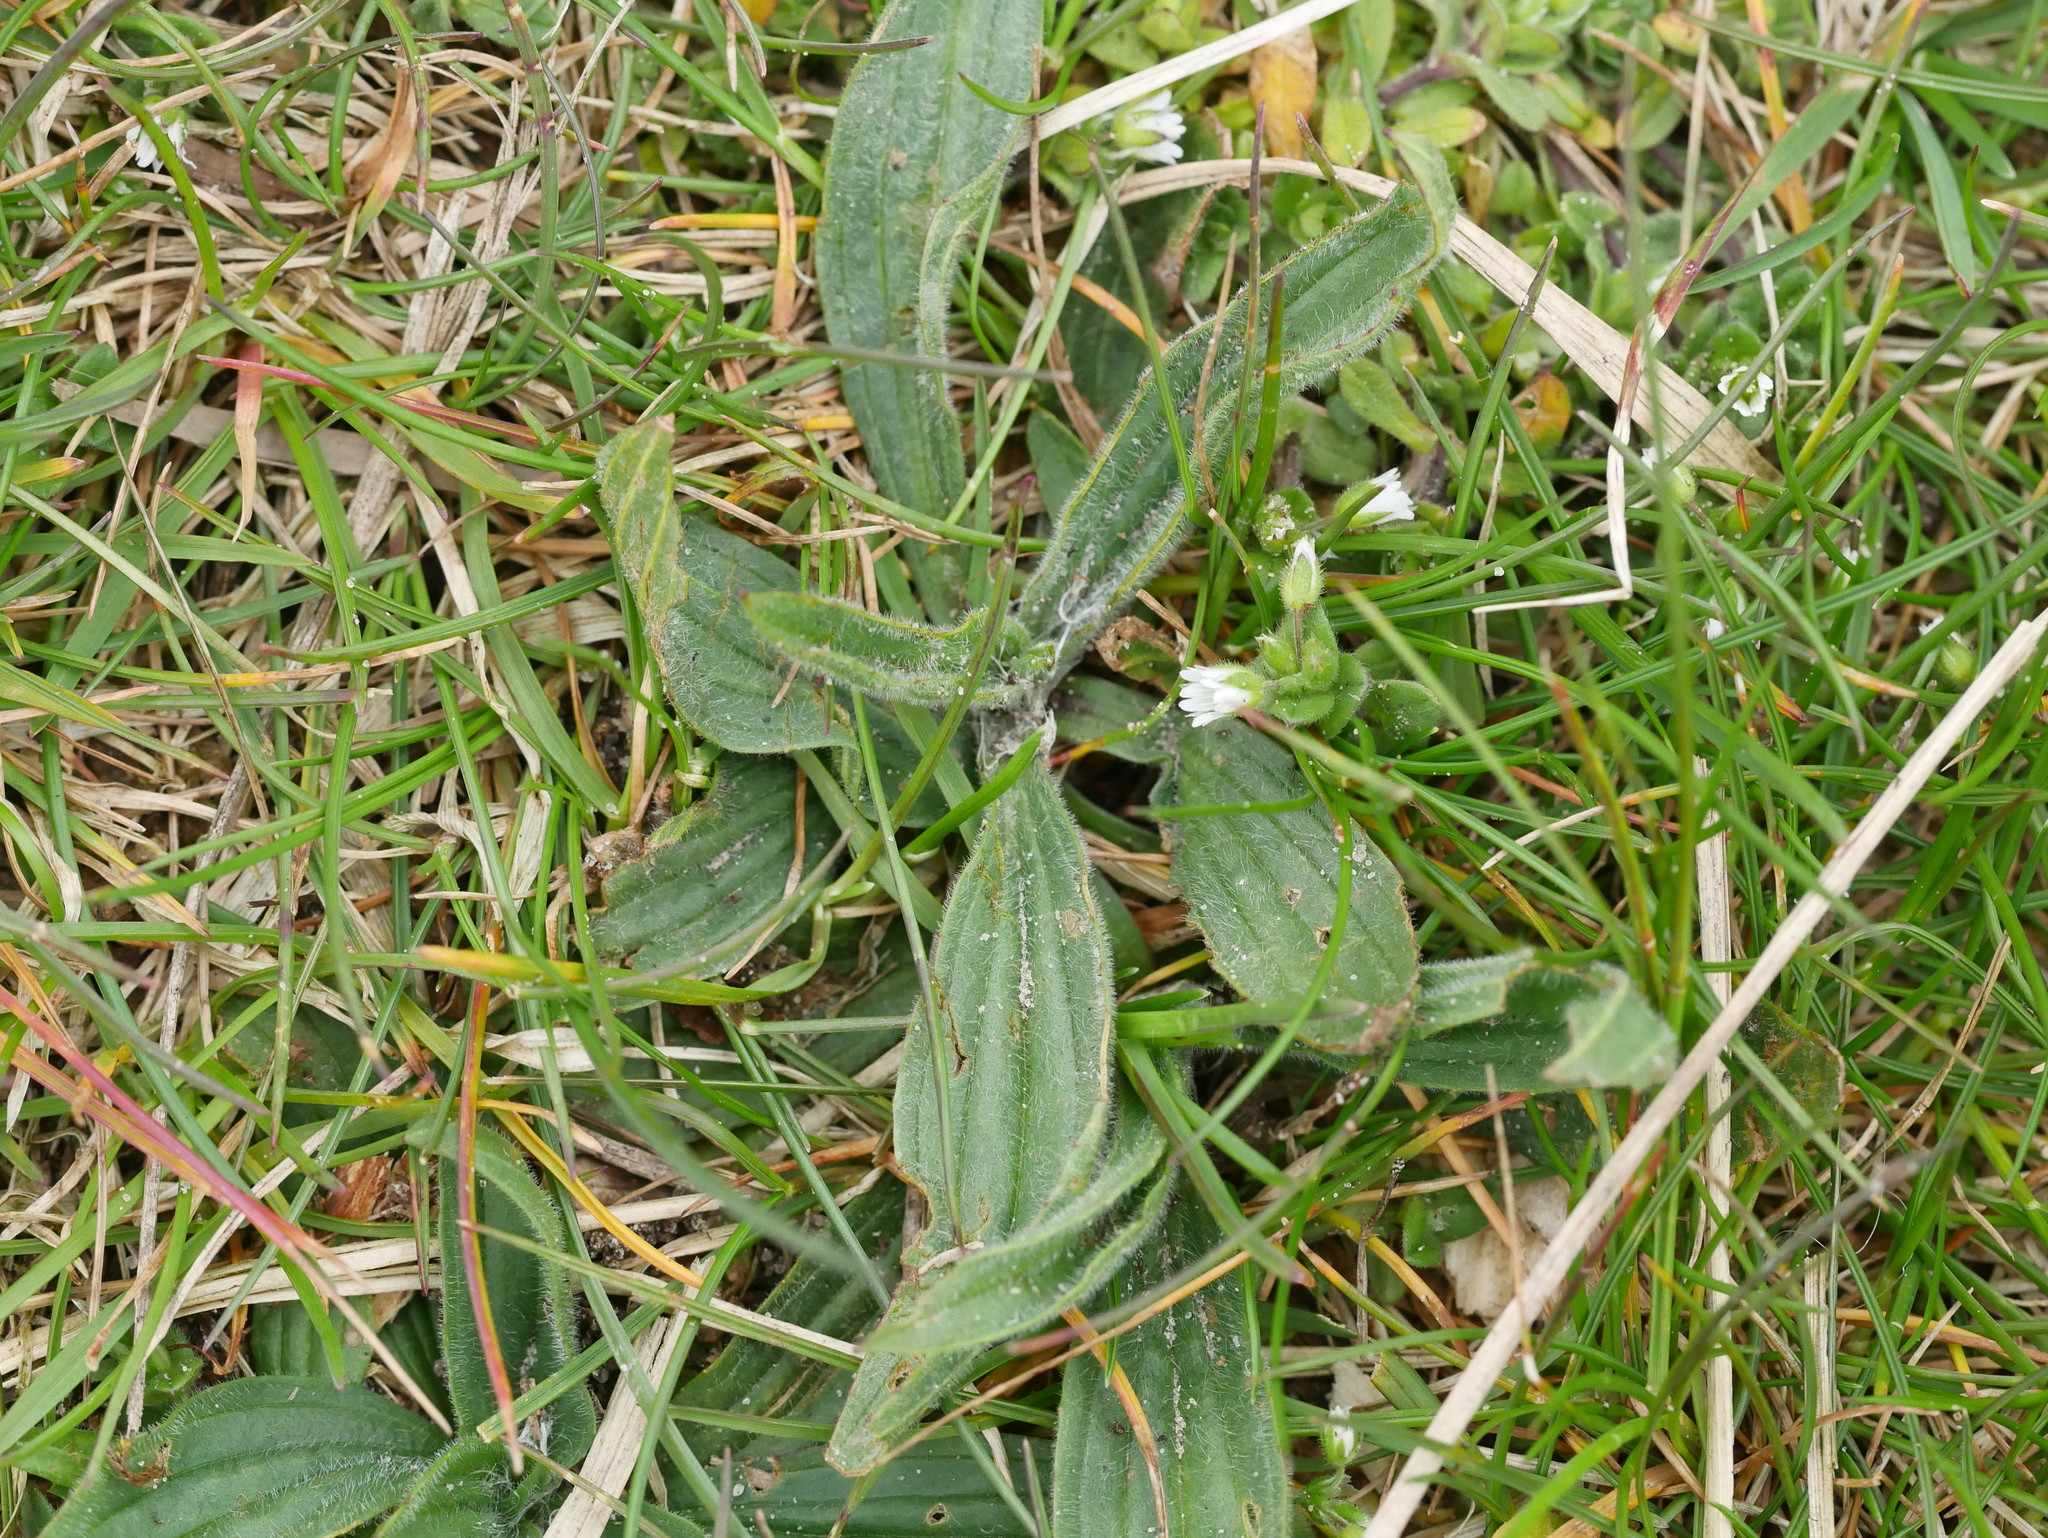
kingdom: Plantae
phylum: Tracheophyta
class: Magnoliopsida
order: Lamiales
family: Plantaginaceae
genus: Plantago
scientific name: Plantago lanceolata
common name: Ribwort plantain
